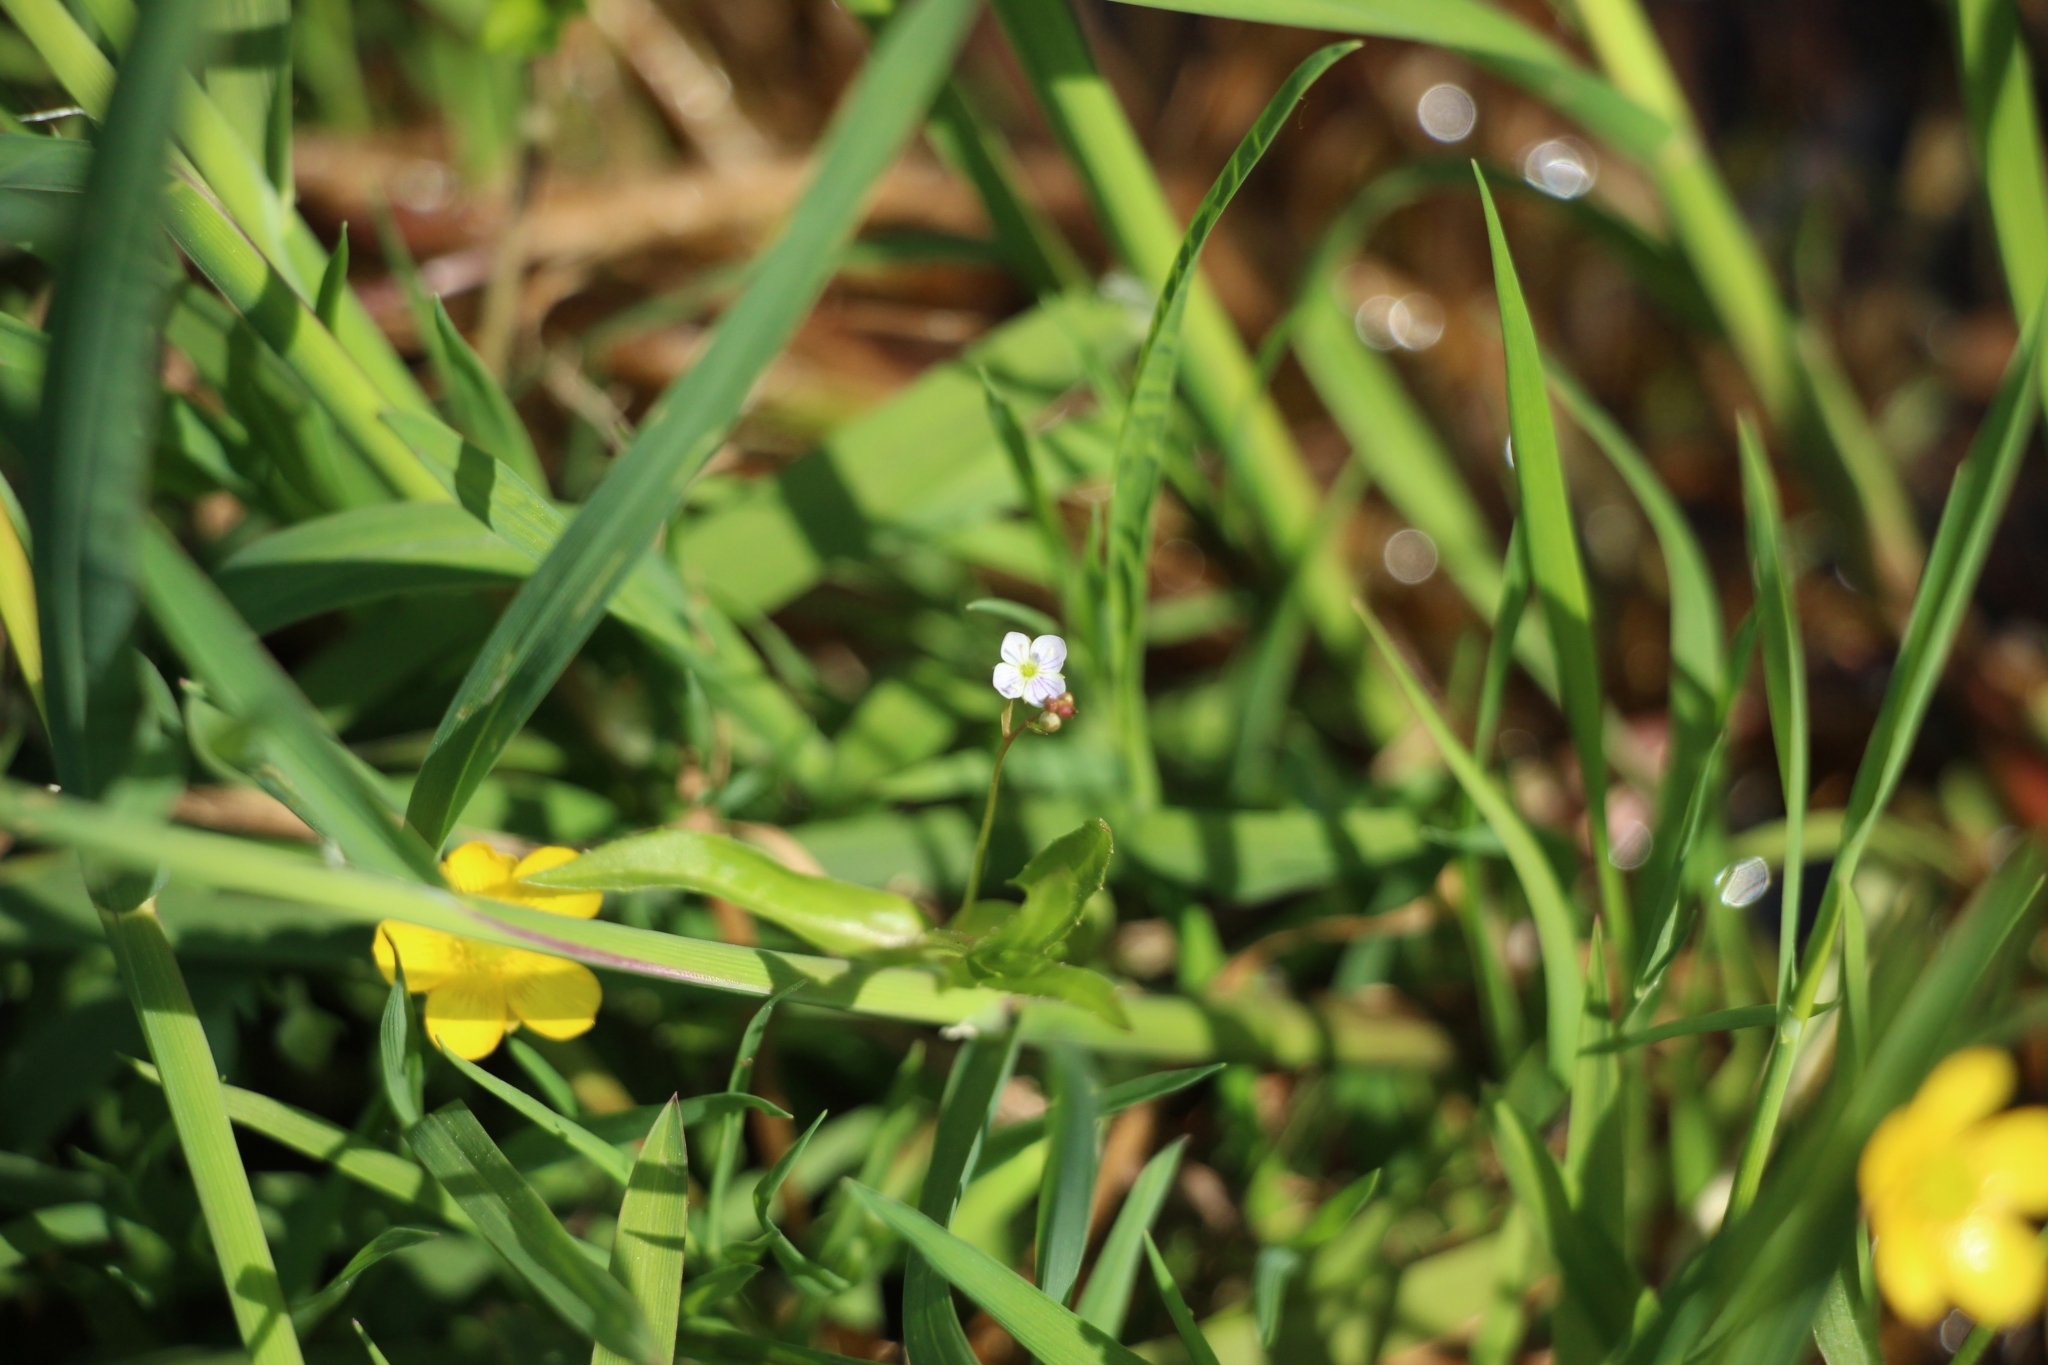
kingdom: Plantae
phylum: Tracheophyta
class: Magnoliopsida
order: Lamiales
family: Plantaginaceae
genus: Veronica
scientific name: Veronica scutellata
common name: Marsh speedwell
